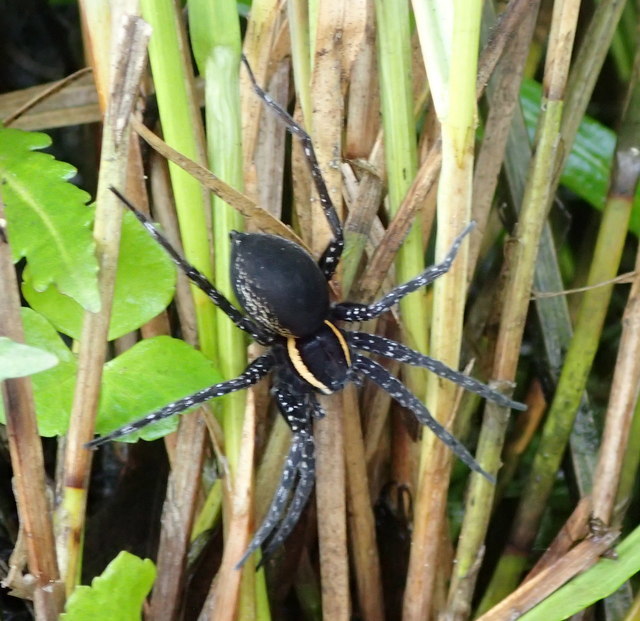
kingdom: Animalia
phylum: Arthropoda
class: Arachnida
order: Araneae
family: Pisauridae
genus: Dolomedes
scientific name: Dolomedes triton
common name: Six-spotted fishing spider
